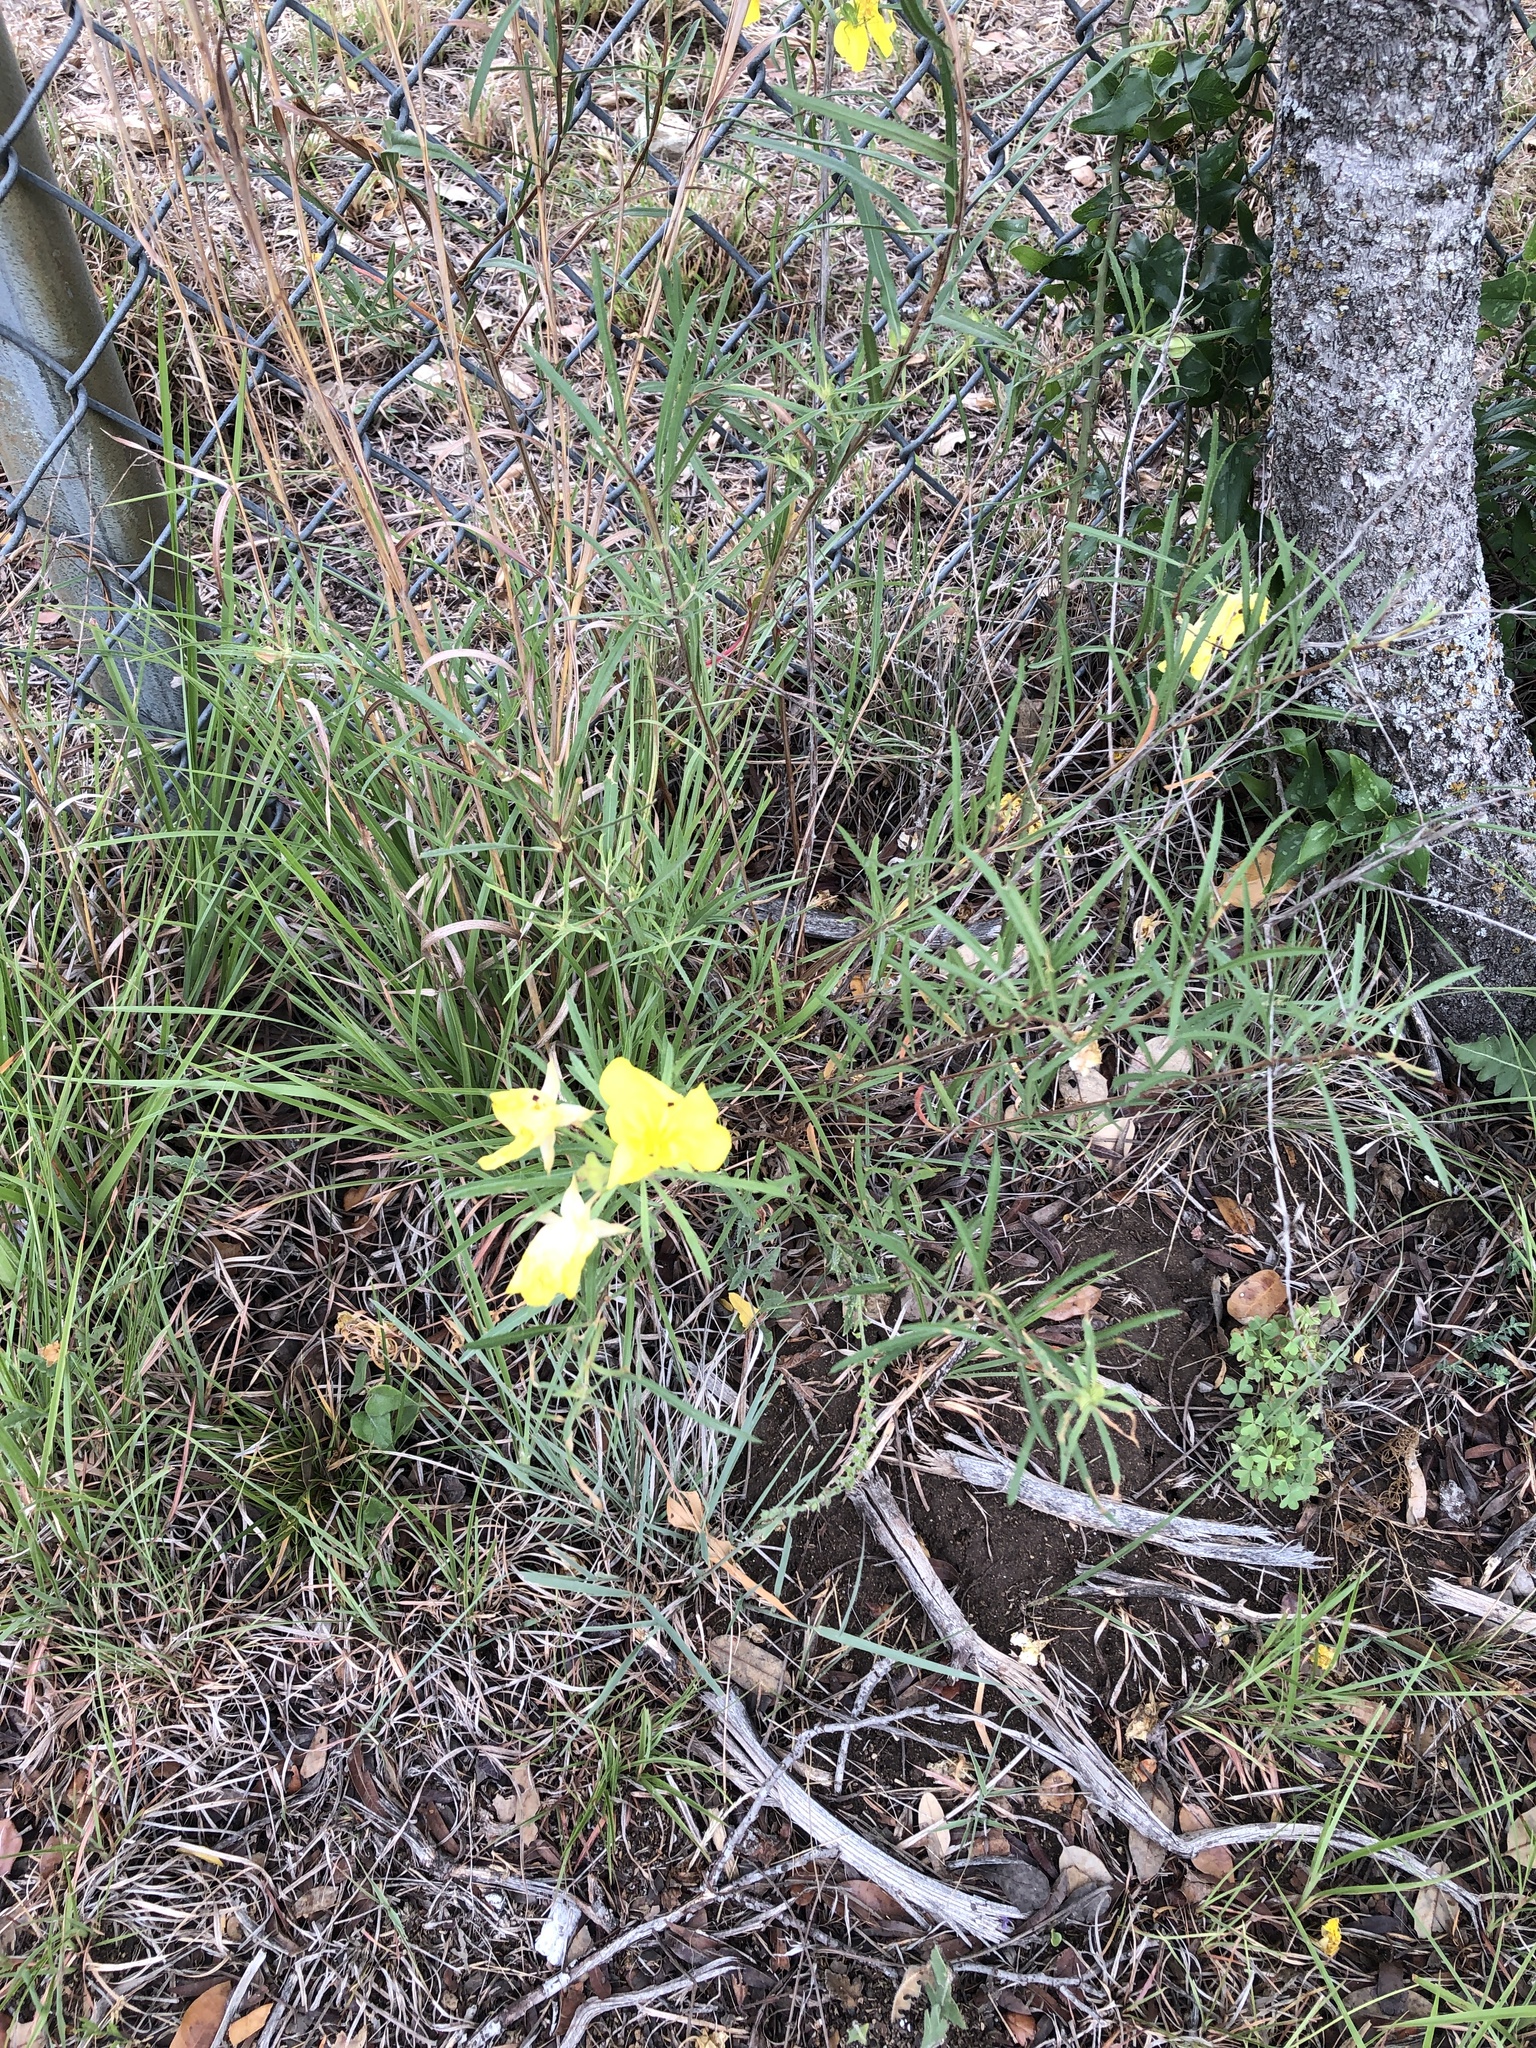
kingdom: Plantae
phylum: Tracheophyta
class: Magnoliopsida
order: Myrtales
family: Onagraceae
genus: Oenothera
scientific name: Oenothera
